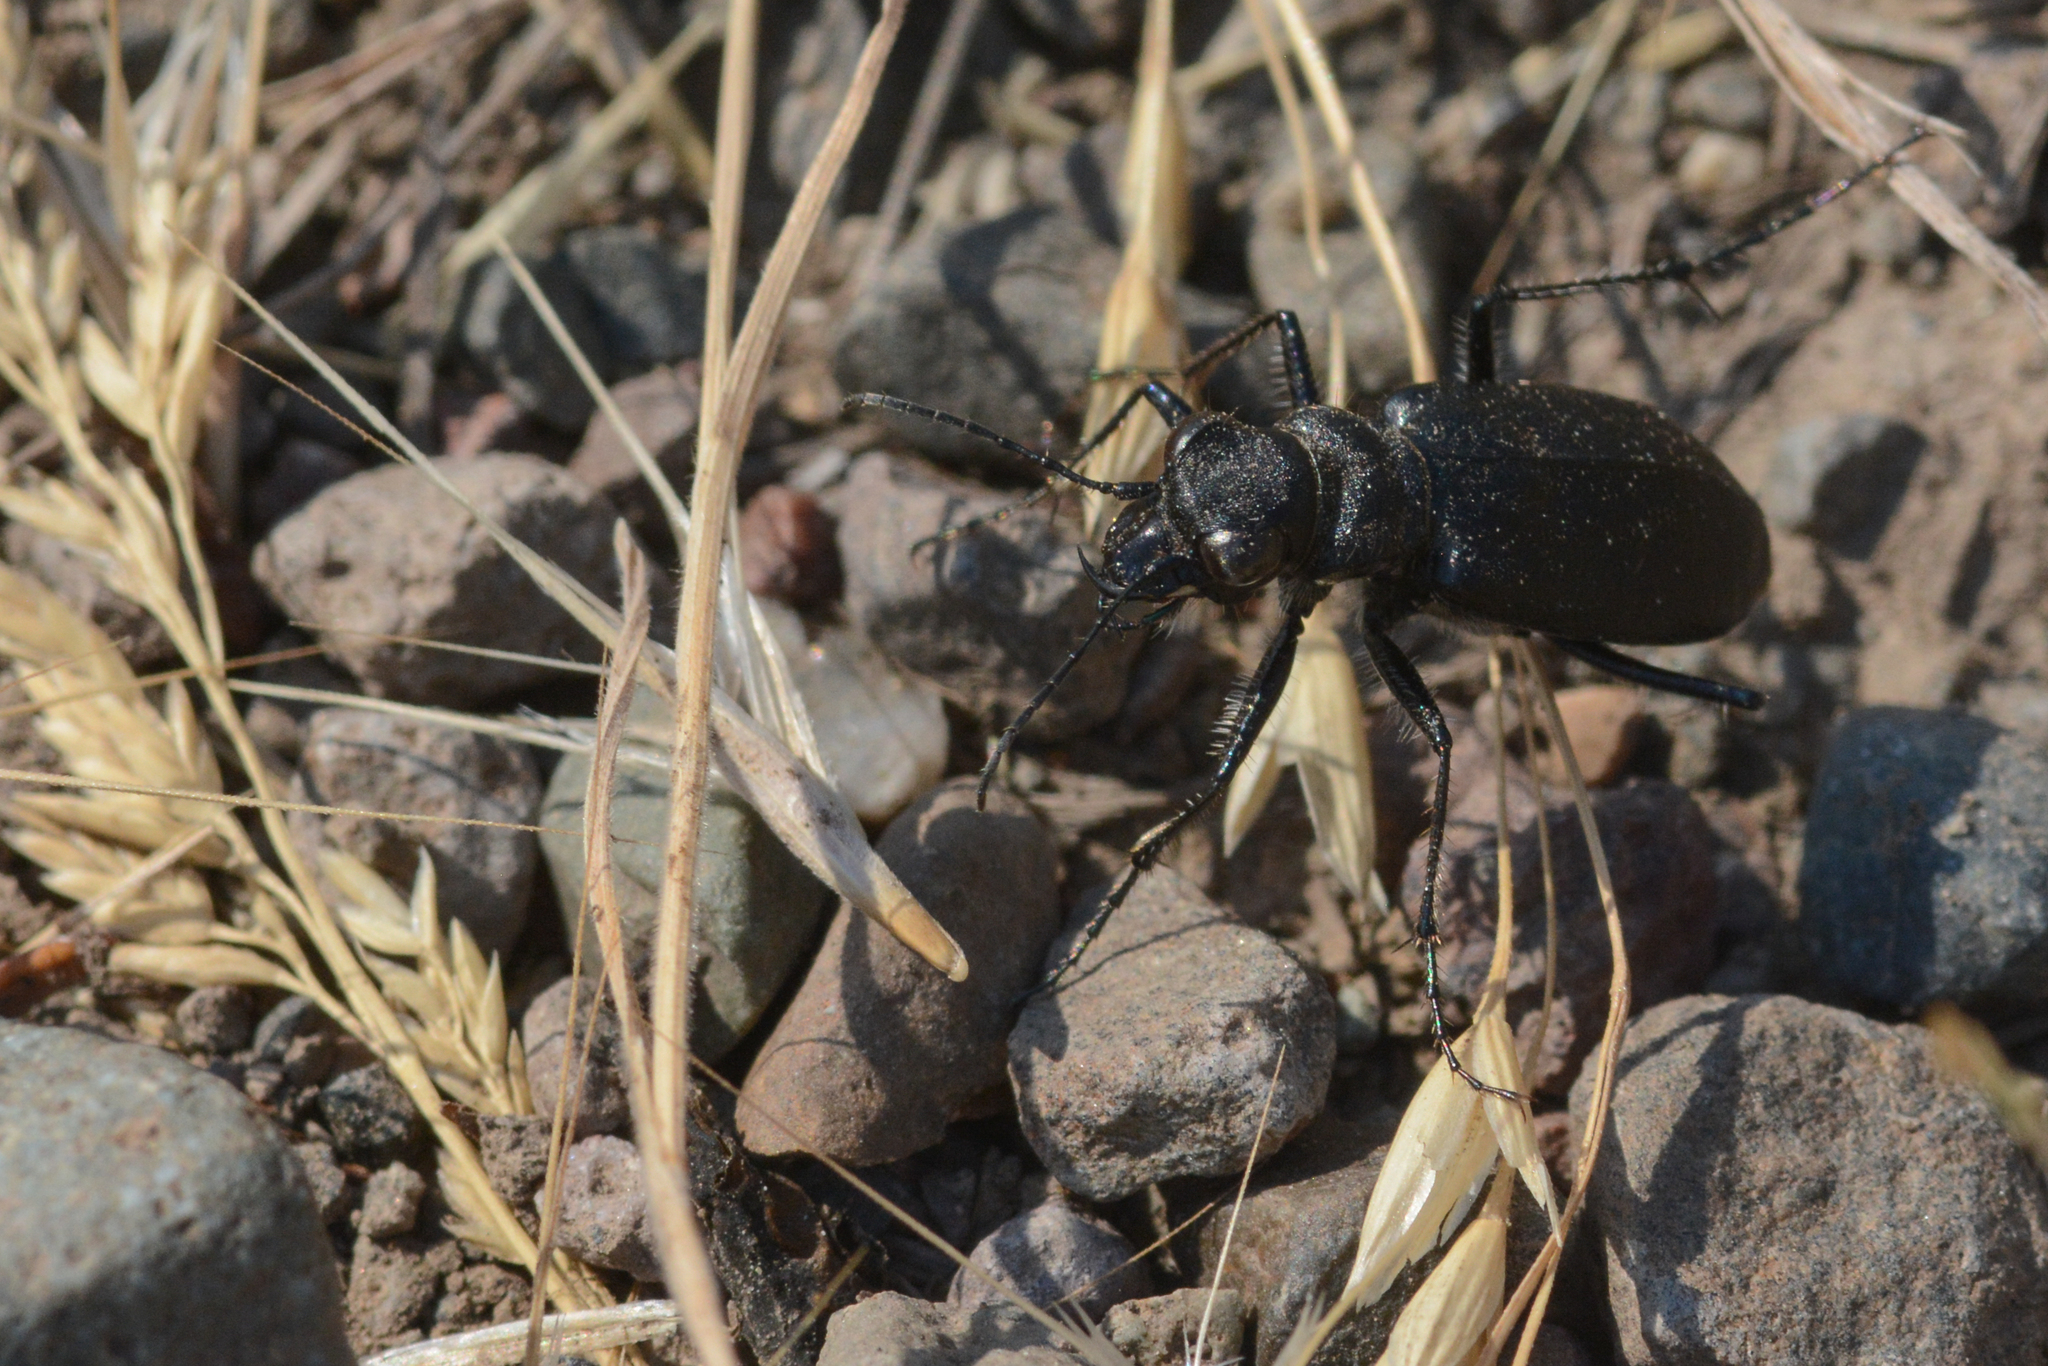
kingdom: Animalia
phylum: Arthropoda
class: Insecta
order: Coleoptera
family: Carabidae
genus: Cicindela
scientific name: Cicindela longilabris
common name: Boreal long-lipped tiger beetle
